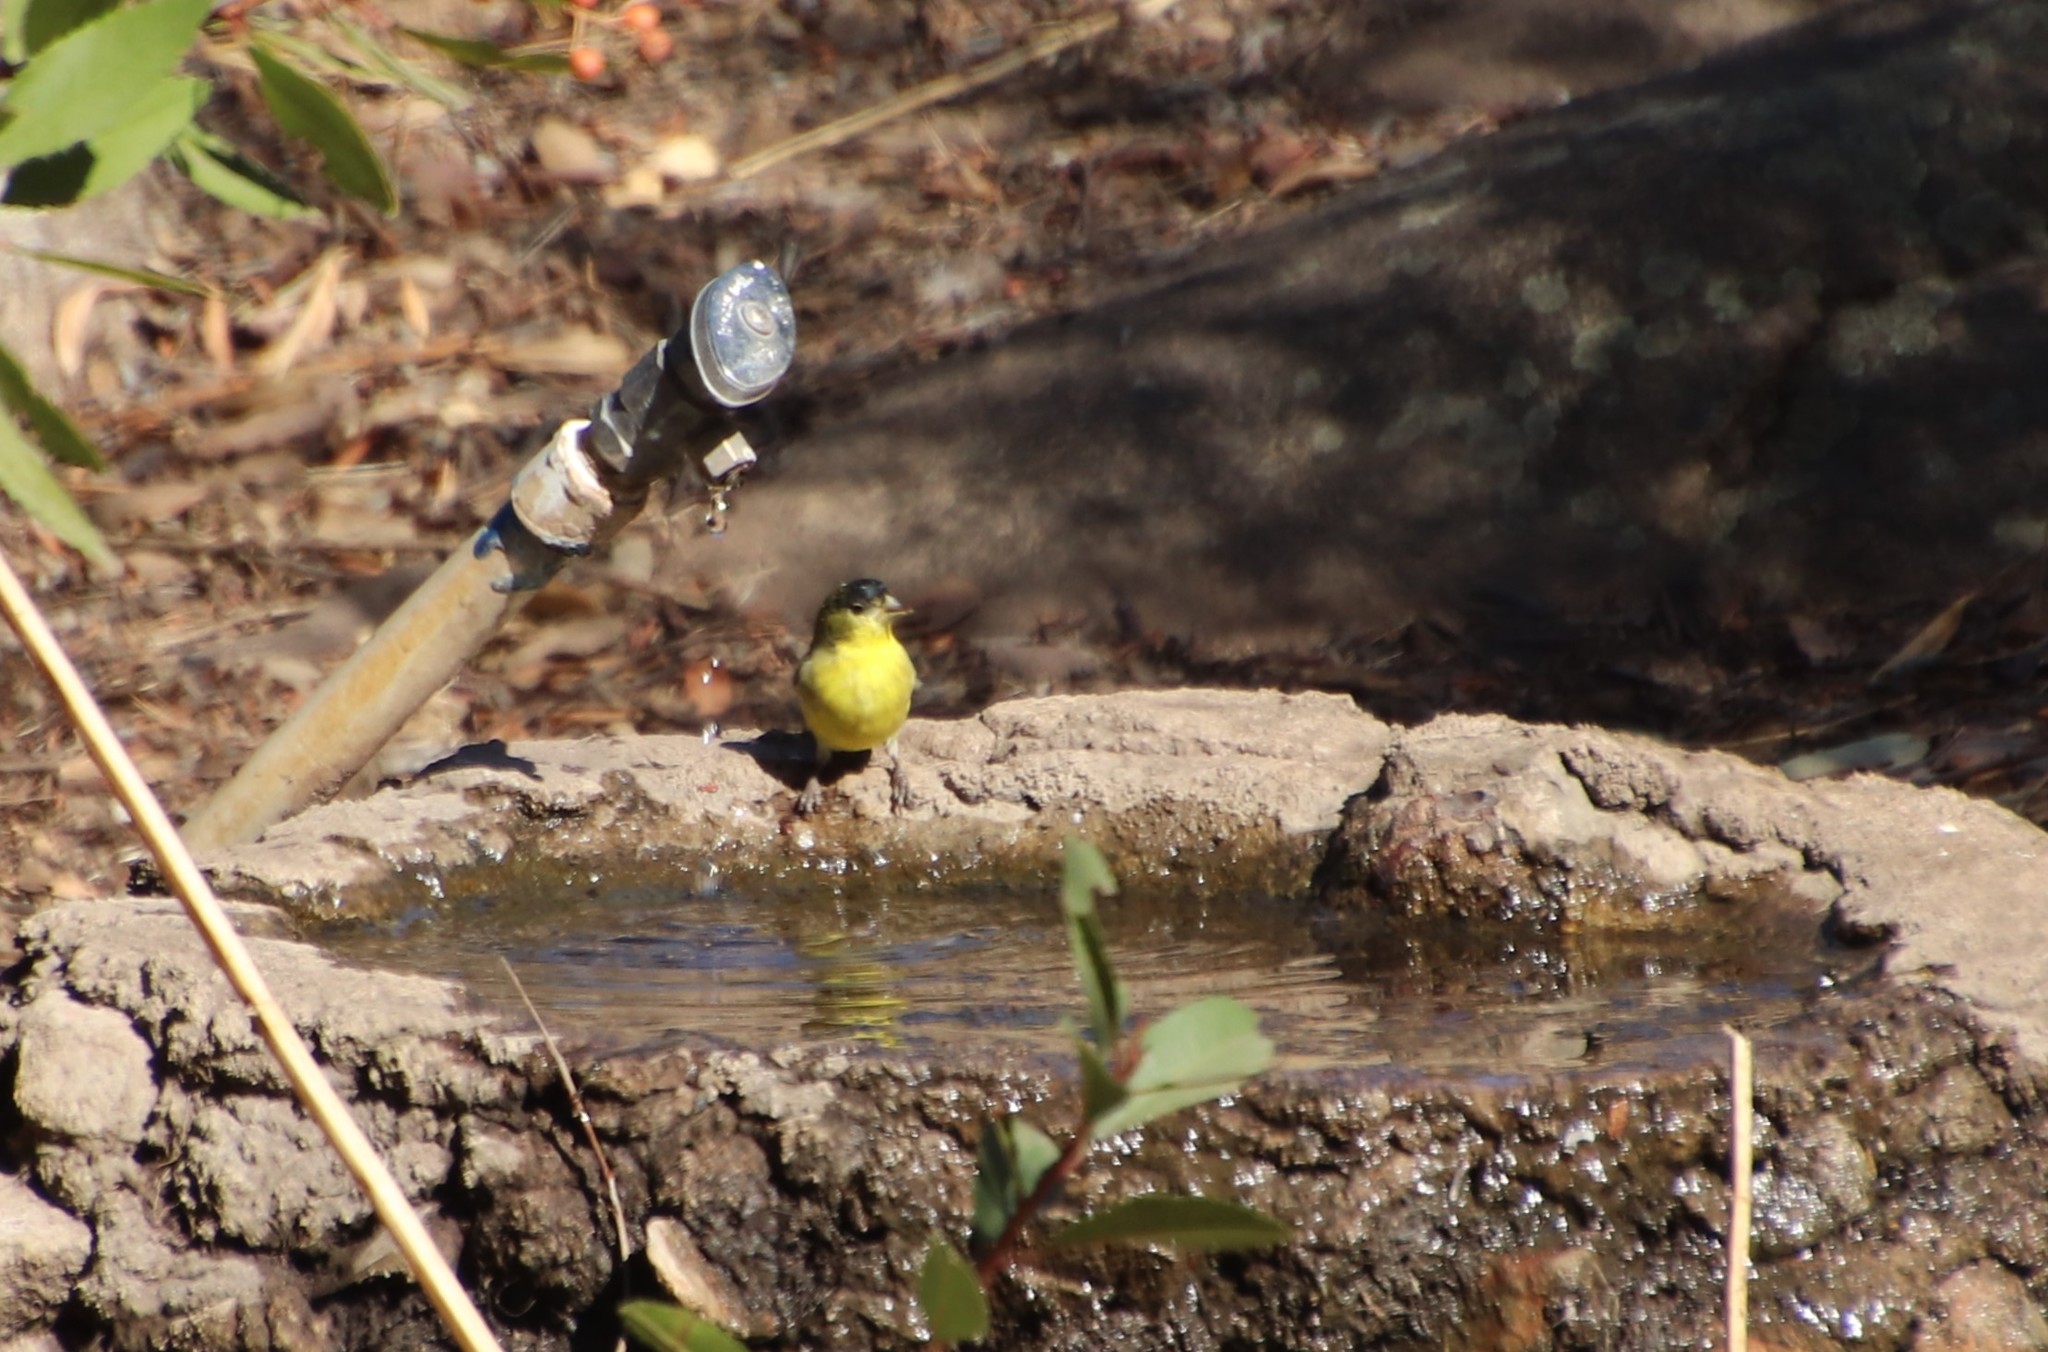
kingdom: Animalia
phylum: Chordata
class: Aves
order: Passeriformes
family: Fringillidae
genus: Spinus
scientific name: Spinus psaltria
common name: Lesser goldfinch
